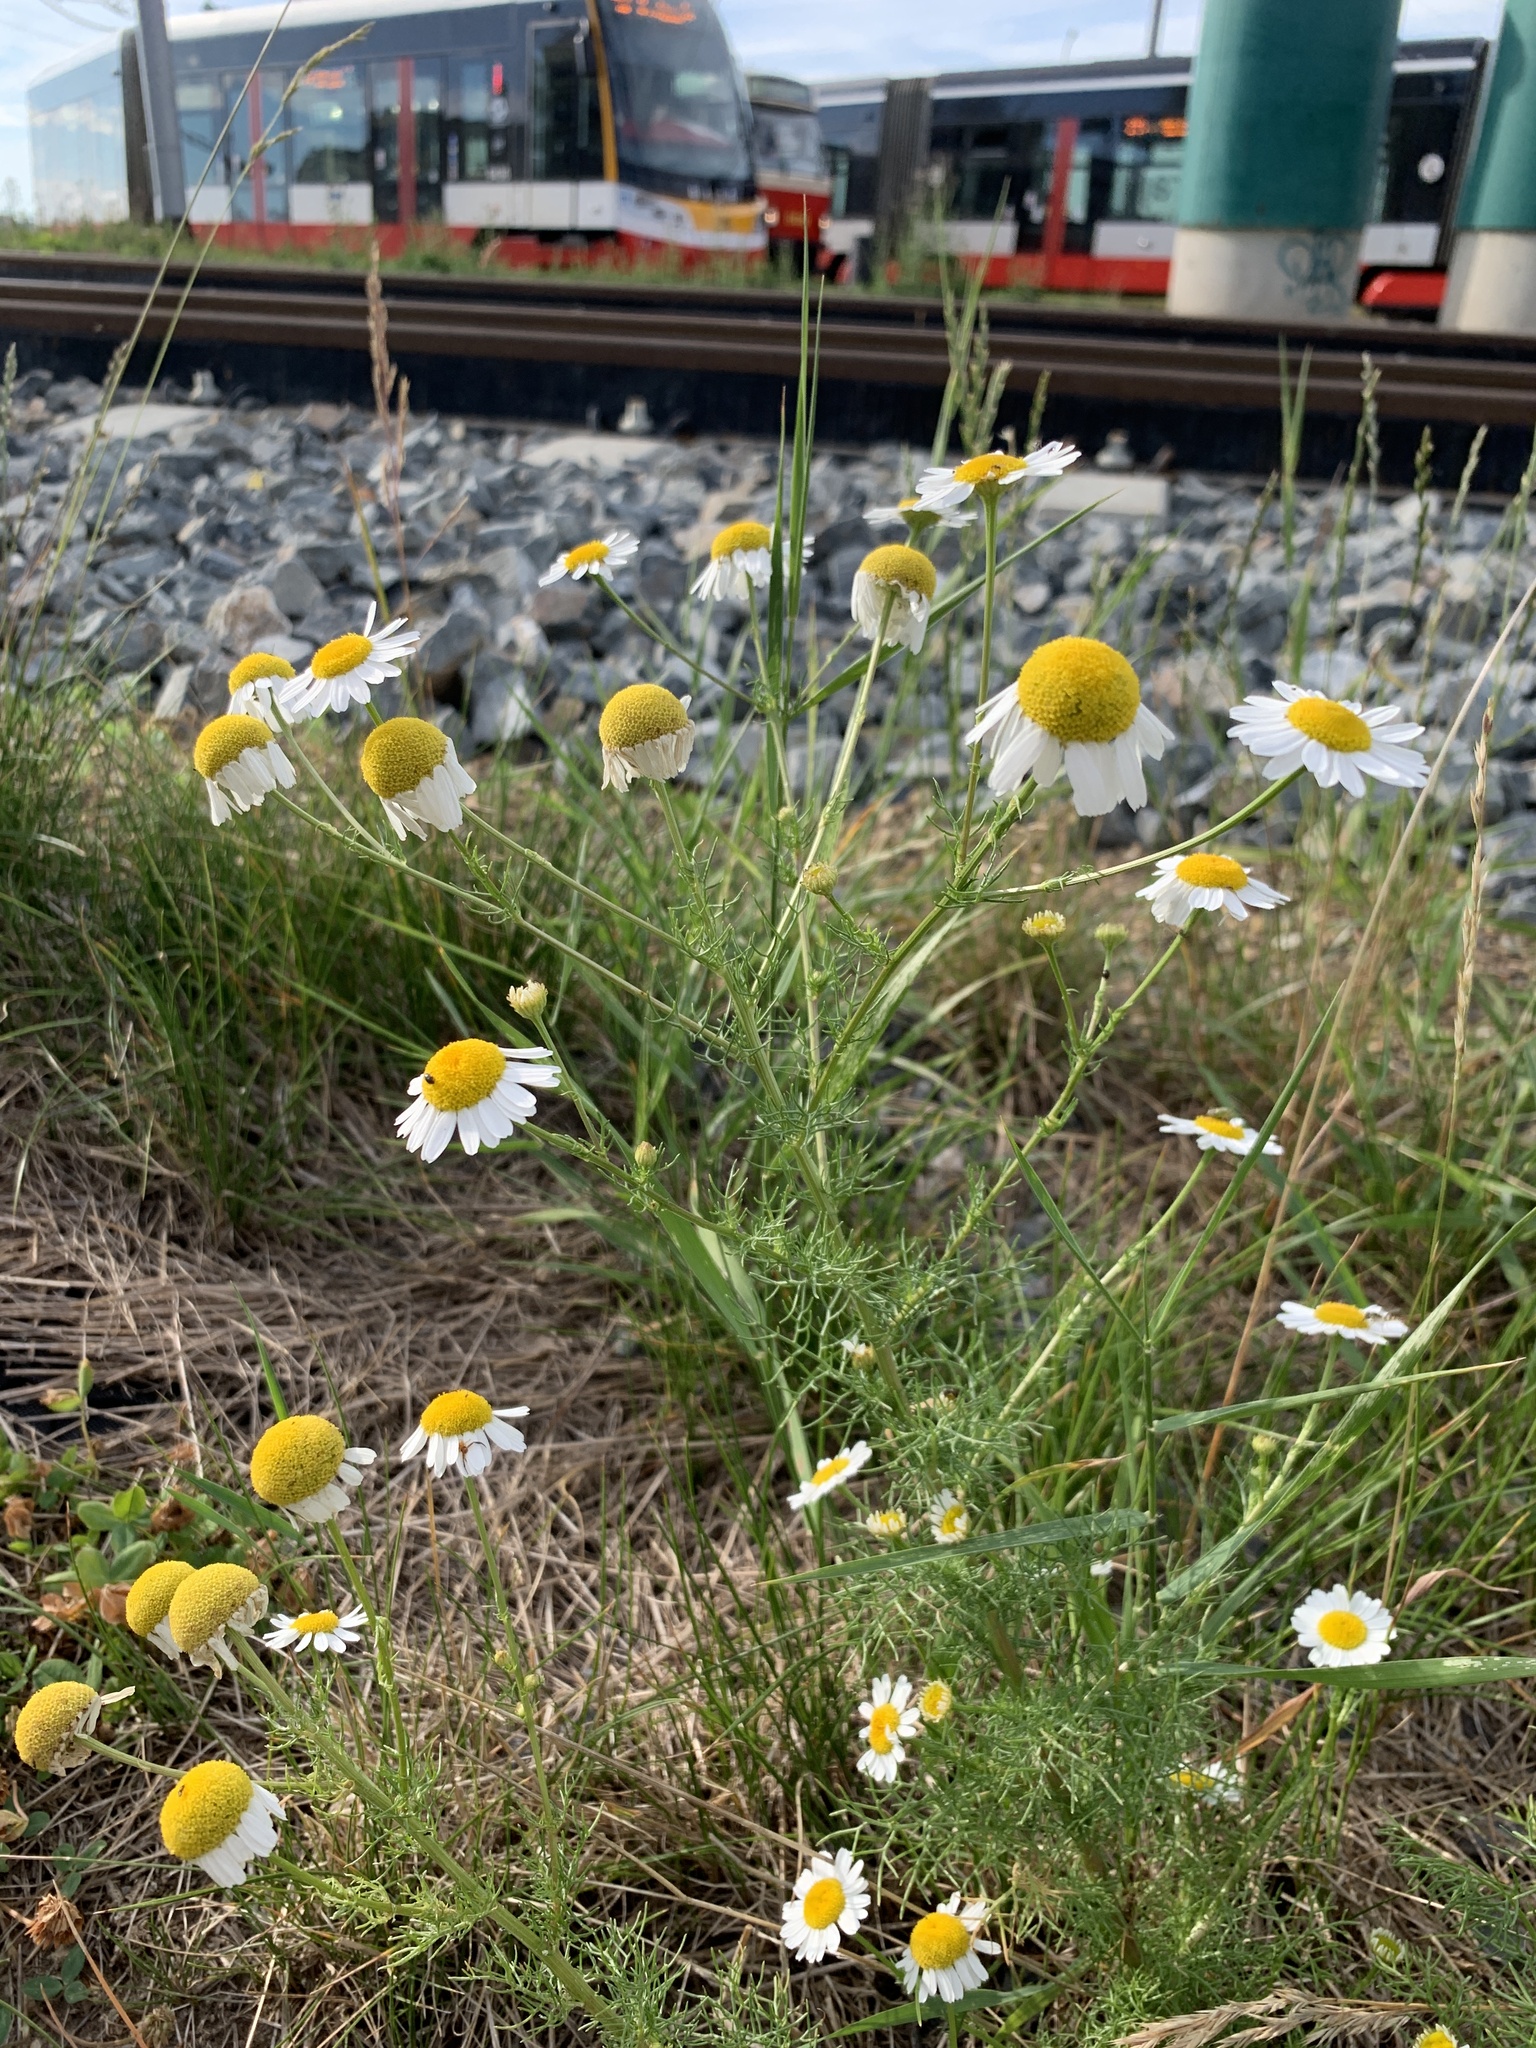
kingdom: Plantae
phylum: Tracheophyta
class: Magnoliopsida
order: Asterales
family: Asteraceae
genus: Tripleurospermum
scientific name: Tripleurospermum inodorum
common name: Scentless mayweed
